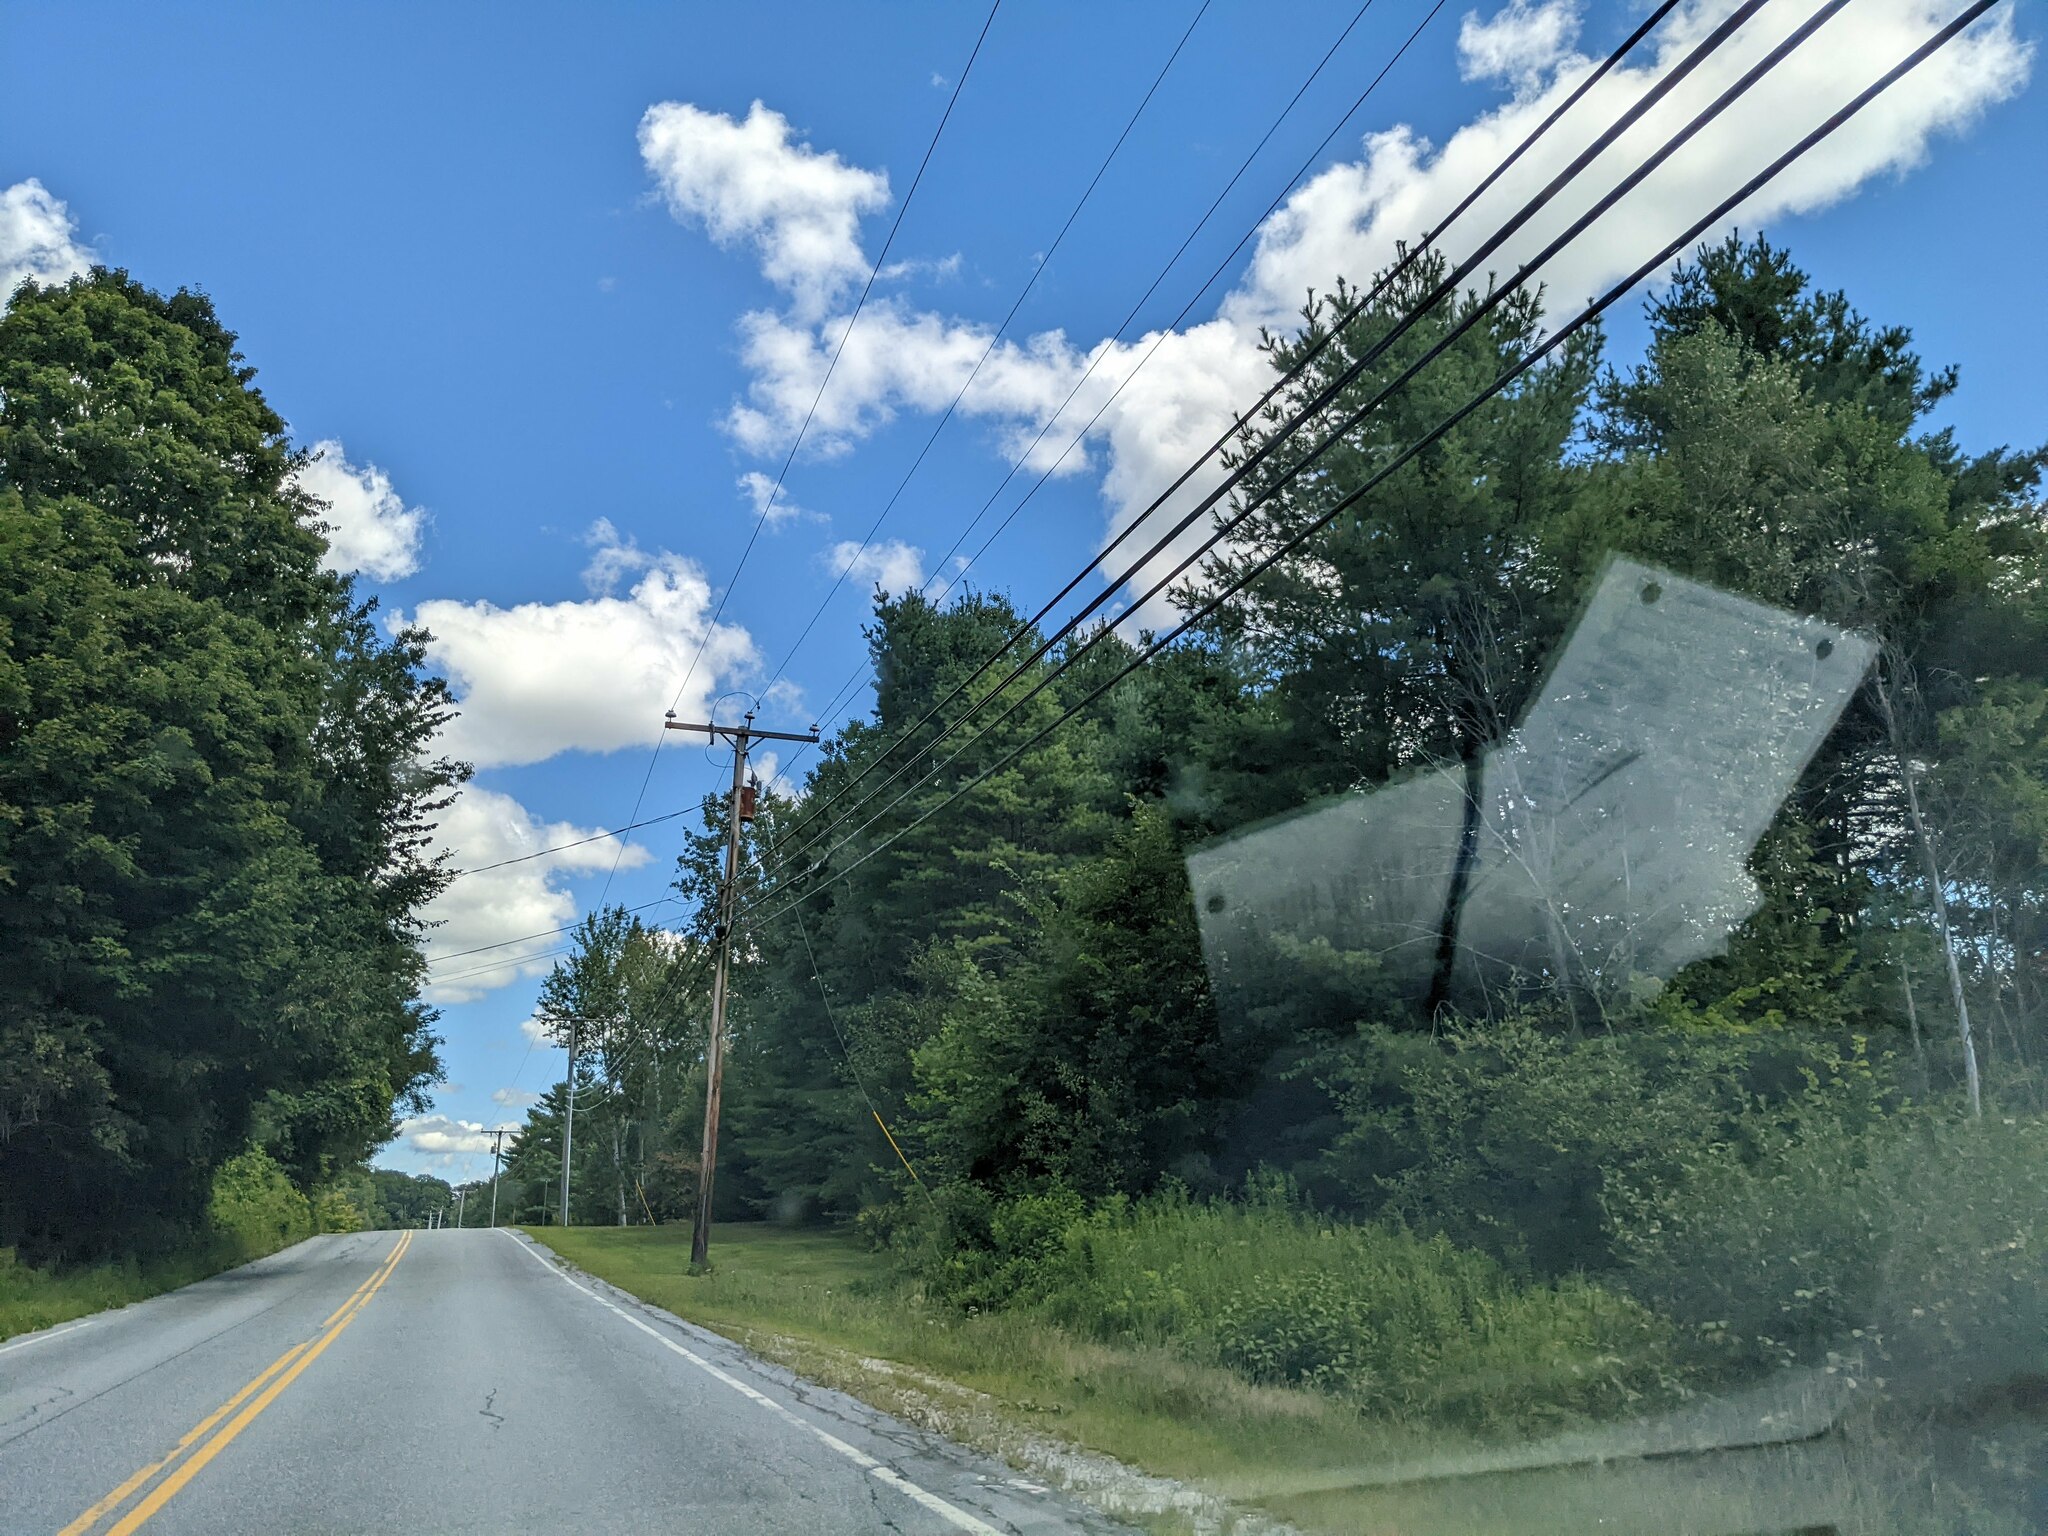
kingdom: Plantae
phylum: Tracheophyta
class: Pinopsida
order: Pinales
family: Pinaceae
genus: Pinus
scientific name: Pinus strobus
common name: Weymouth pine
